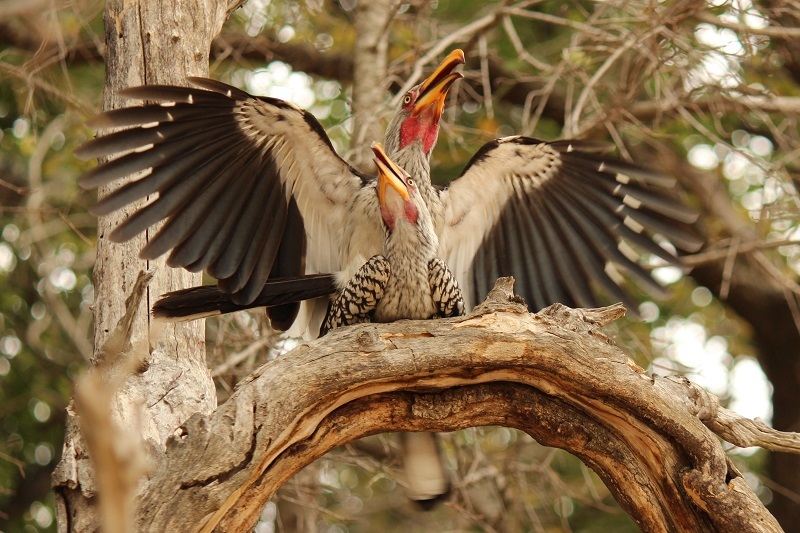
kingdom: Animalia
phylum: Chordata
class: Aves
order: Bucerotiformes
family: Bucerotidae
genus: Tockus
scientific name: Tockus leucomelas
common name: Southern yellow-billed hornbill
